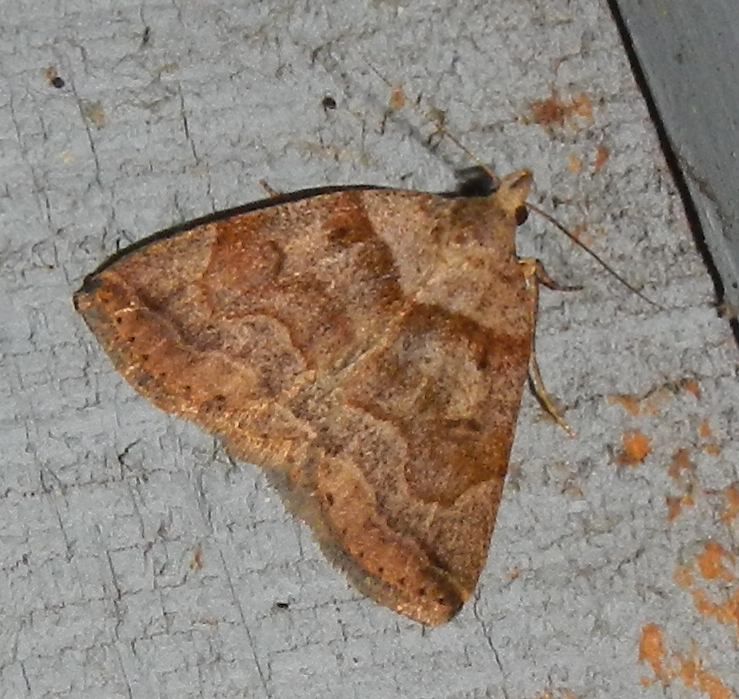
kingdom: Animalia
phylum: Arthropoda
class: Insecta
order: Lepidoptera
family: Erebidae
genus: Zanclognatha
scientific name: Zanclognatha laevigata
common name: Variable fan-foot
